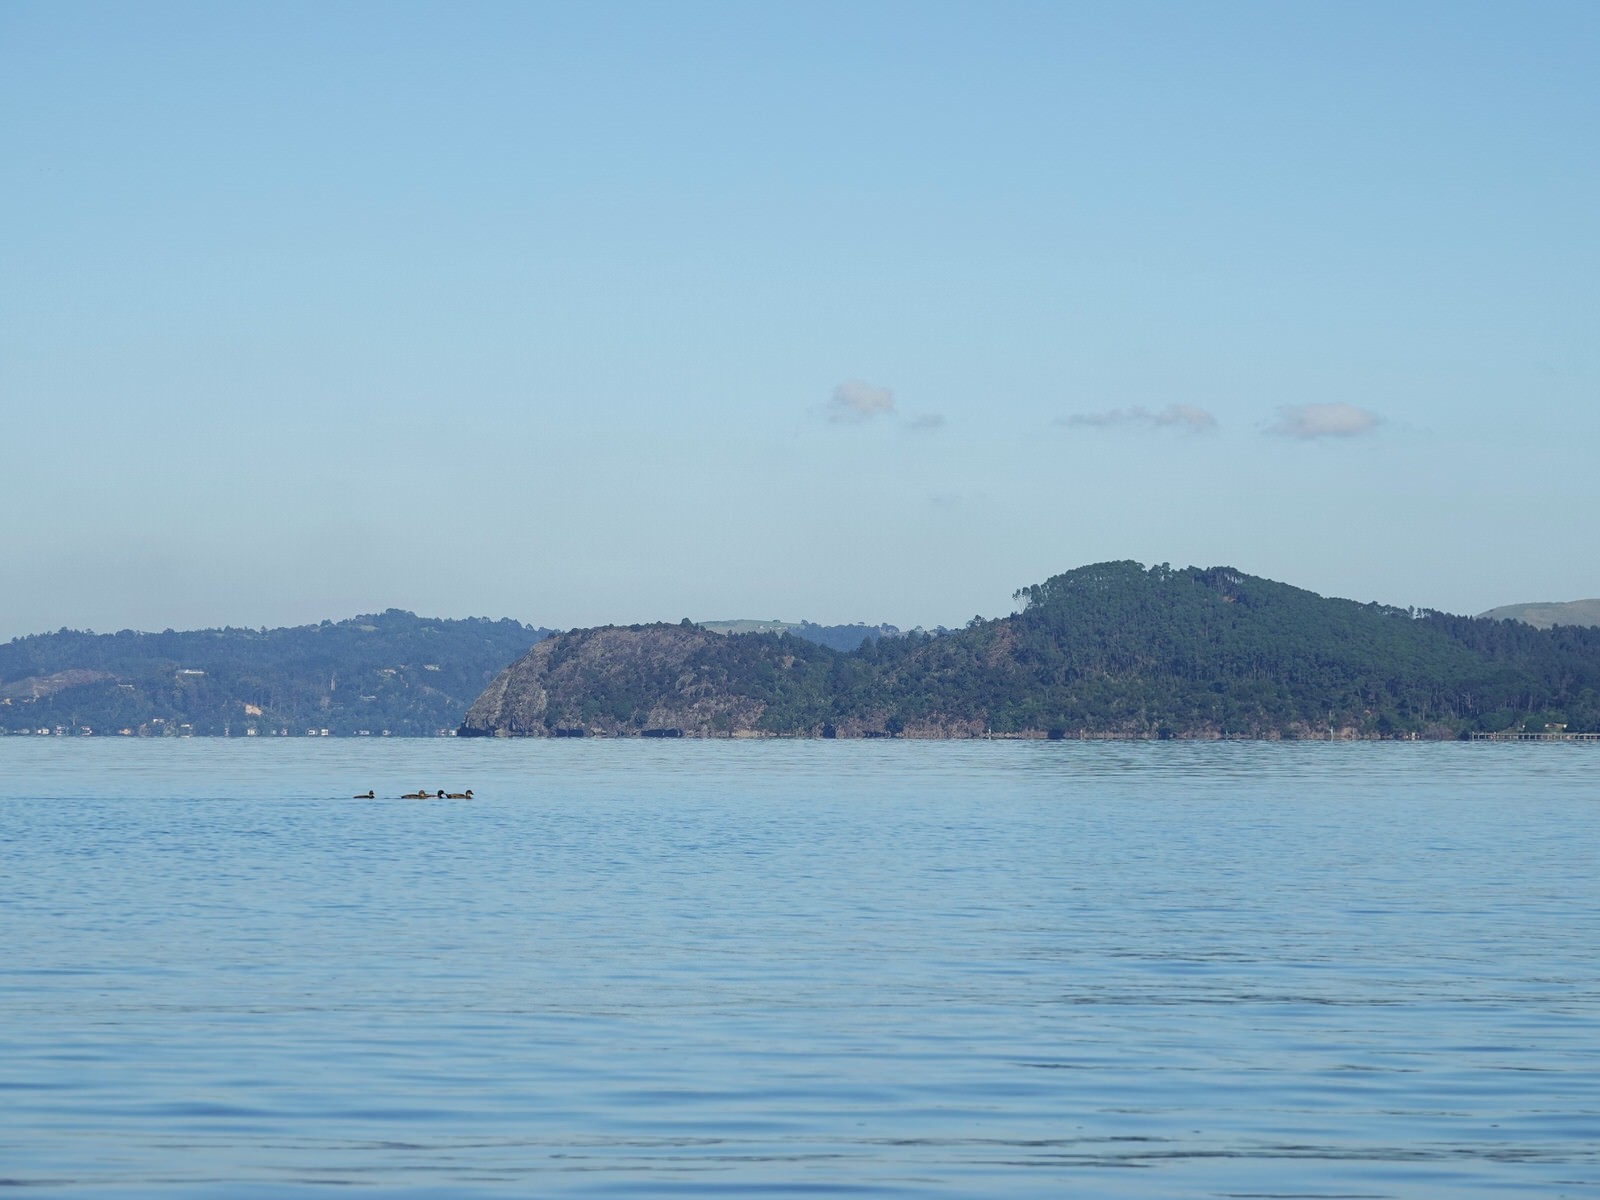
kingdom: Animalia
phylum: Chordata
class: Aves
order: Anseriformes
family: Anatidae
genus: Anas
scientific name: Anas
